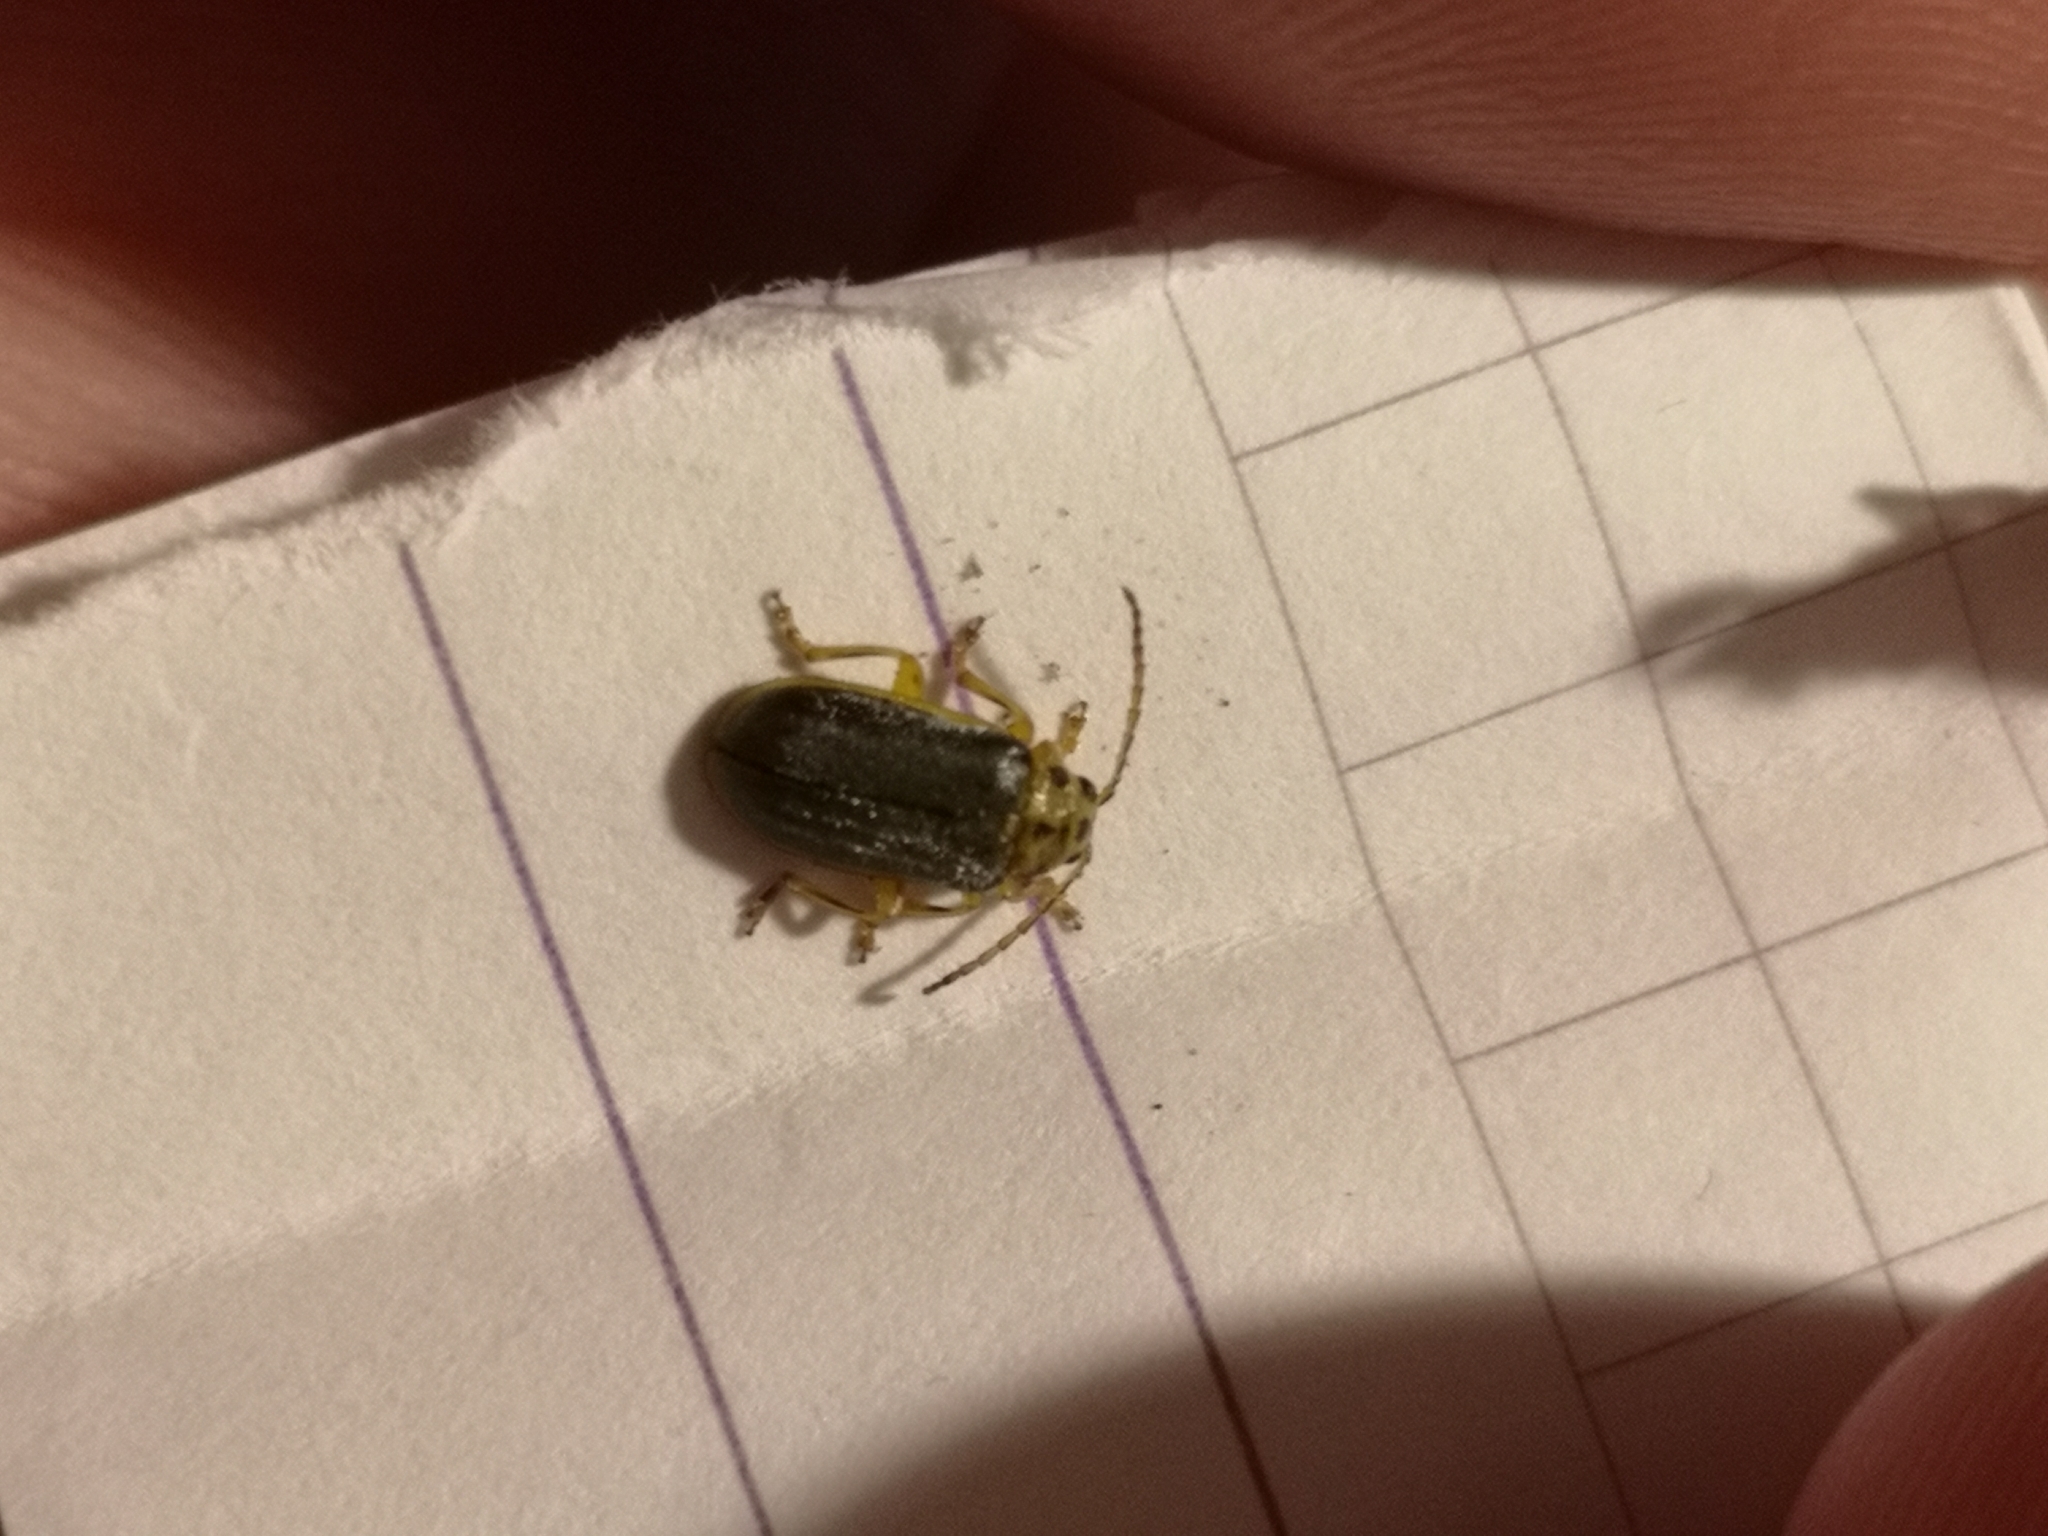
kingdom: Animalia
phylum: Arthropoda
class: Insecta
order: Coleoptera
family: Chrysomelidae
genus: Xanthogaleruca
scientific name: Xanthogaleruca luteola
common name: Elm leaf beetle
